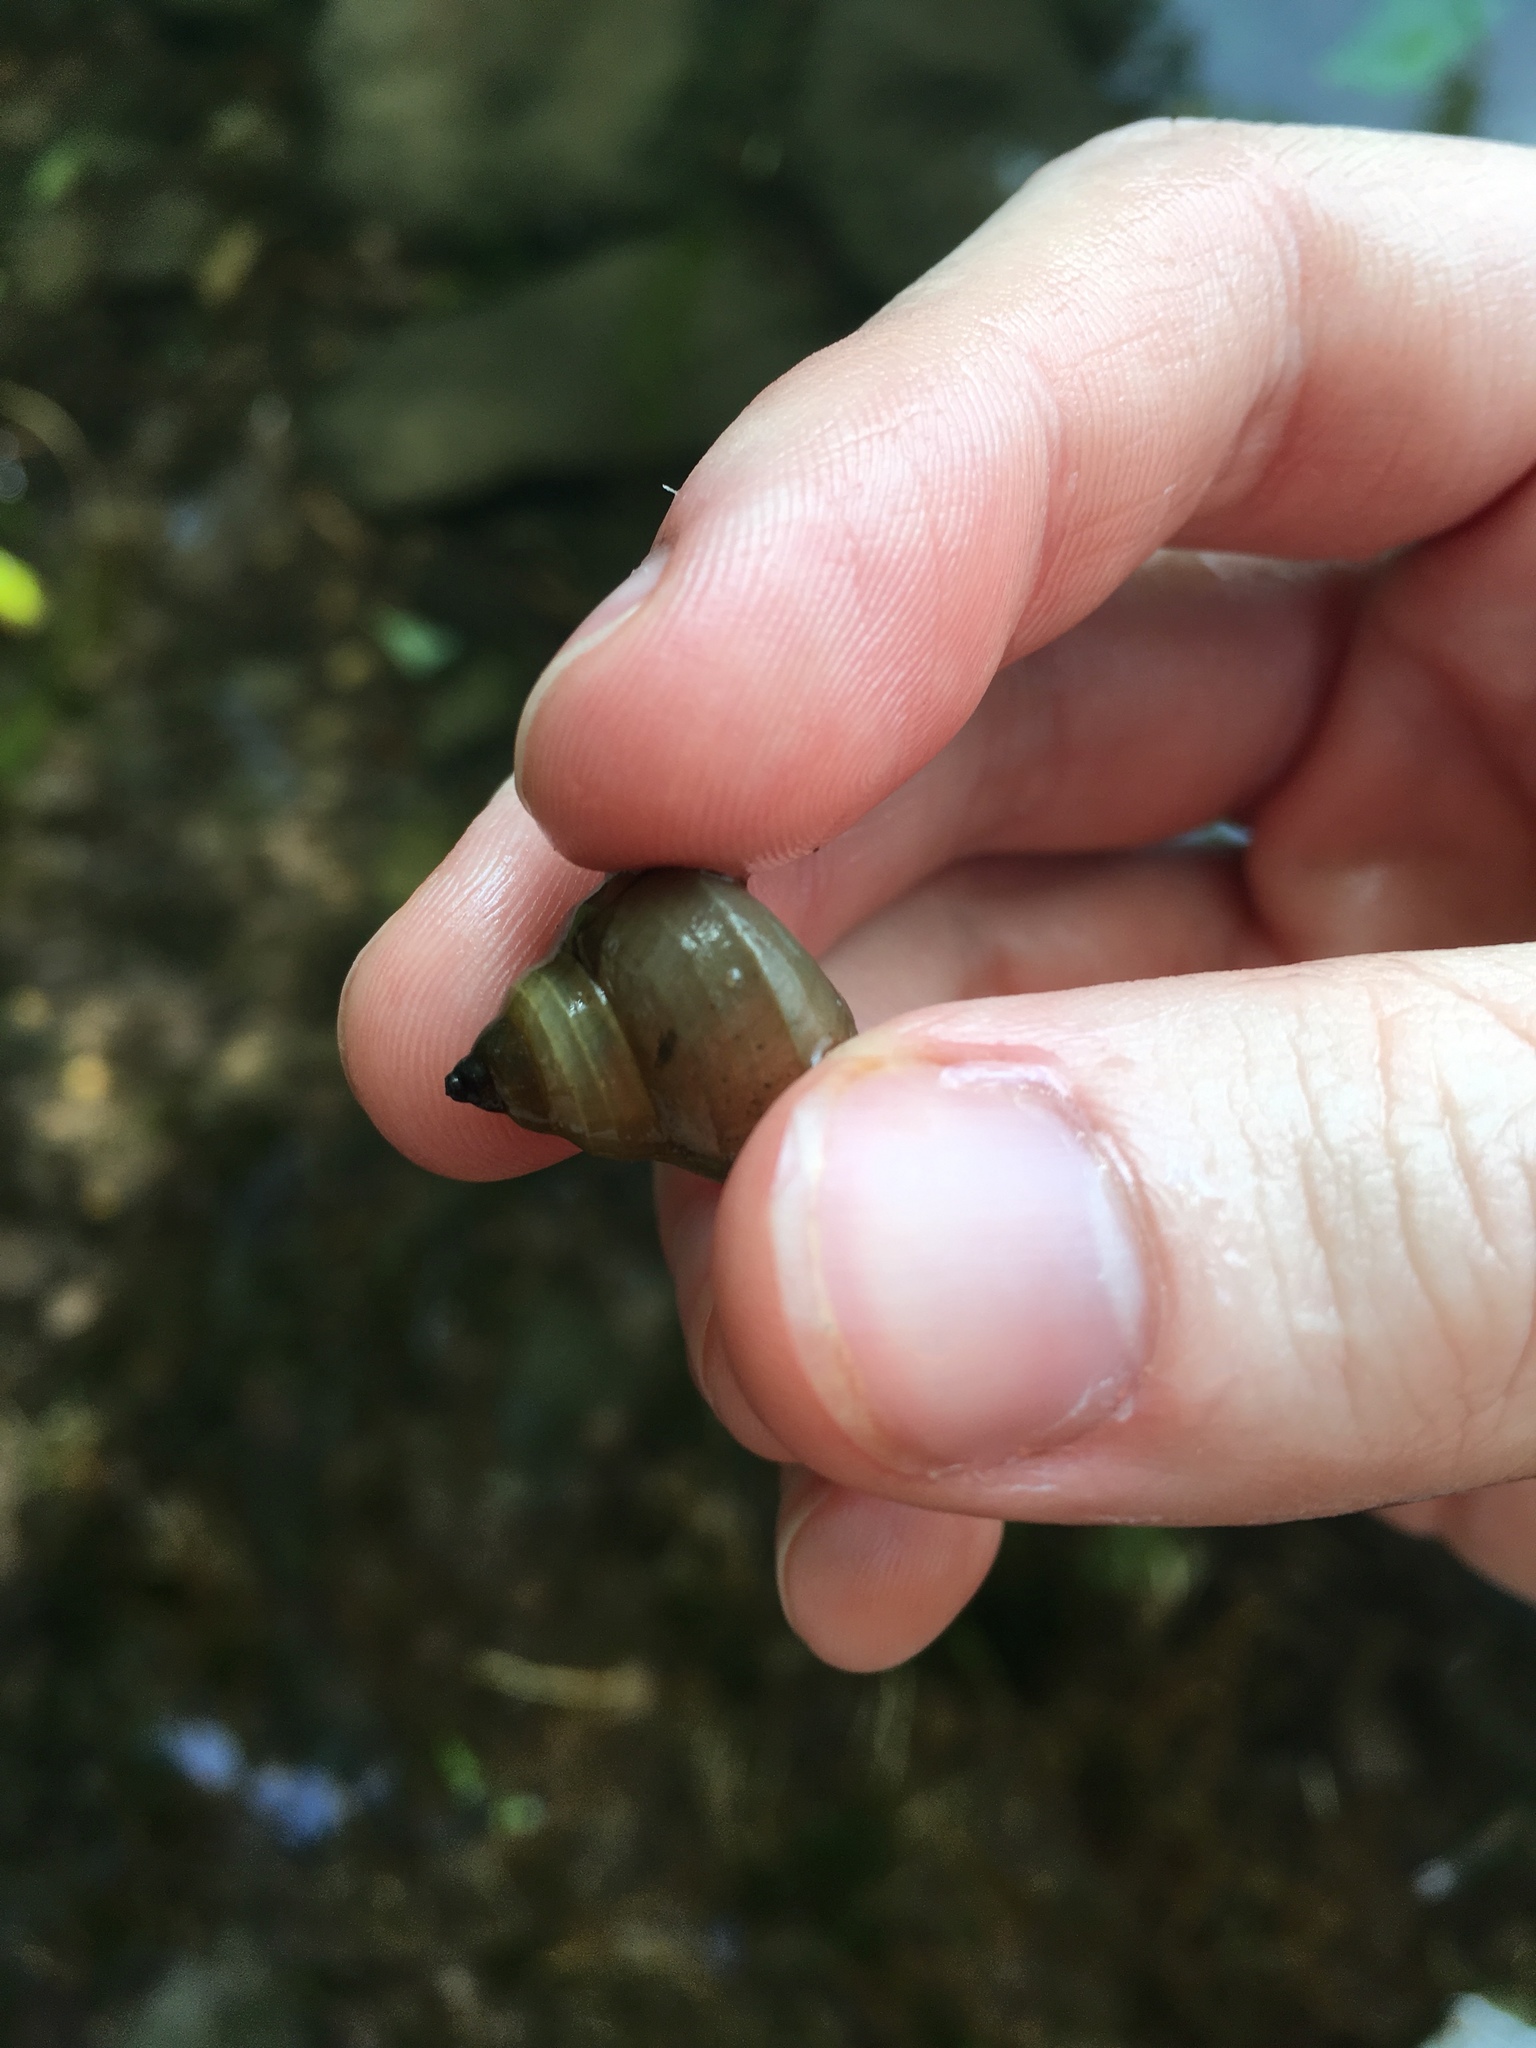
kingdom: Animalia
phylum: Mollusca
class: Gastropoda
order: Architaenioglossa
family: Viviparidae
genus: Cipangopaludina
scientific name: Cipangopaludina chinensis
